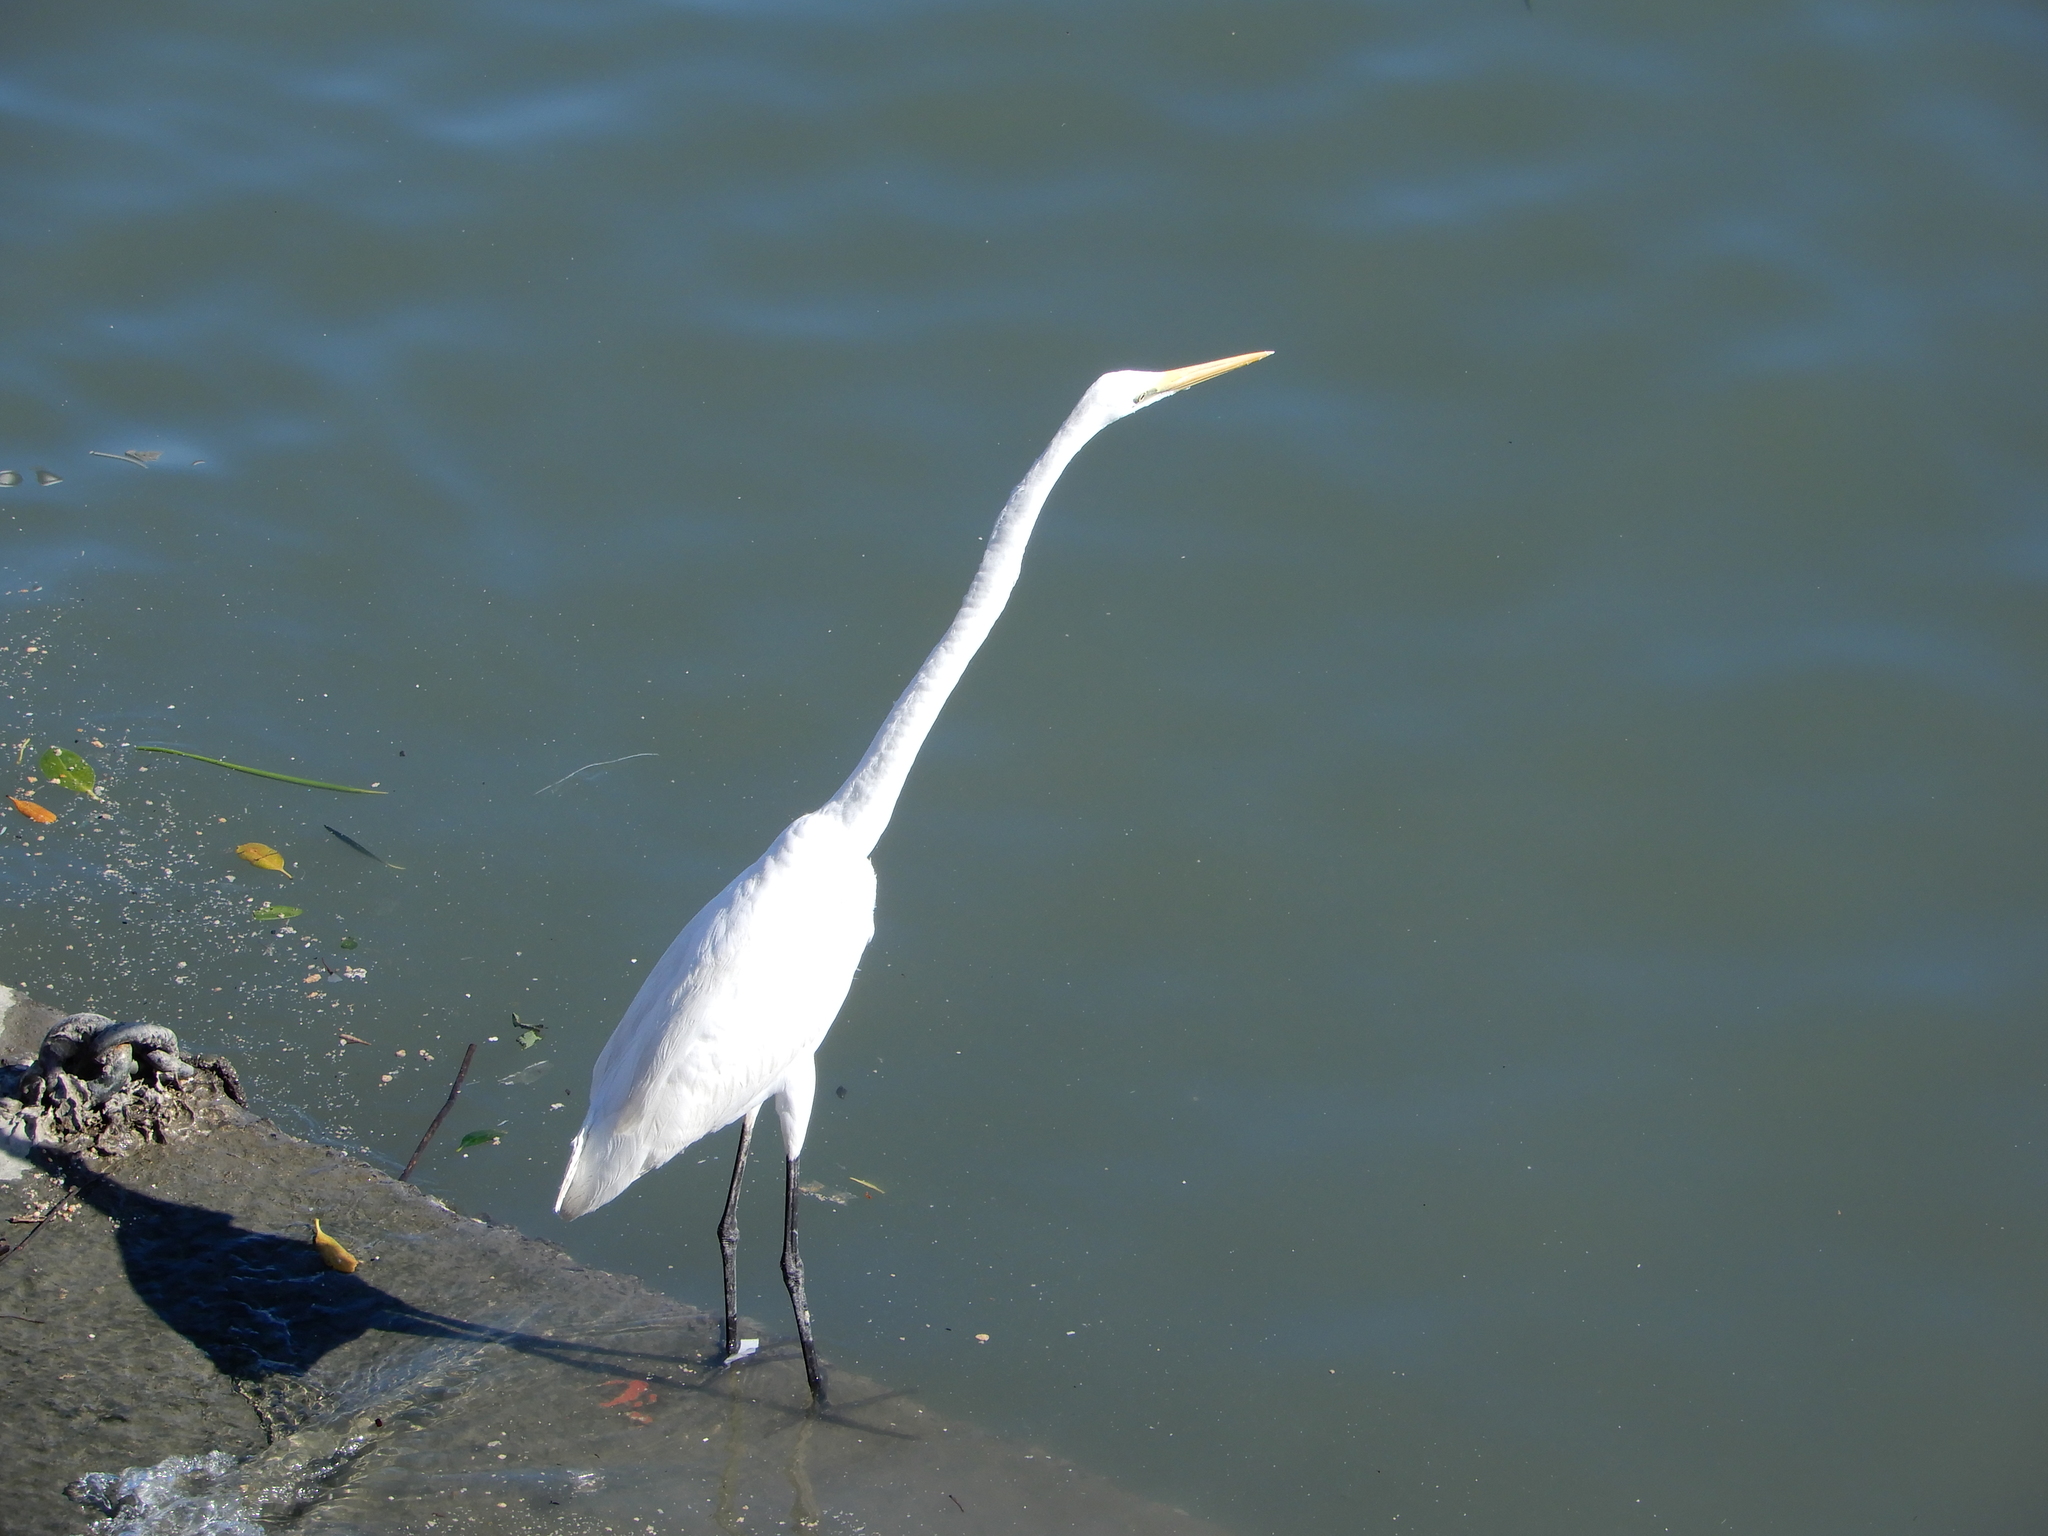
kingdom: Animalia
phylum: Chordata
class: Aves
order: Pelecaniformes
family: Ardeidae
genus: Ardea
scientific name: Ardea alba
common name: Great egret
